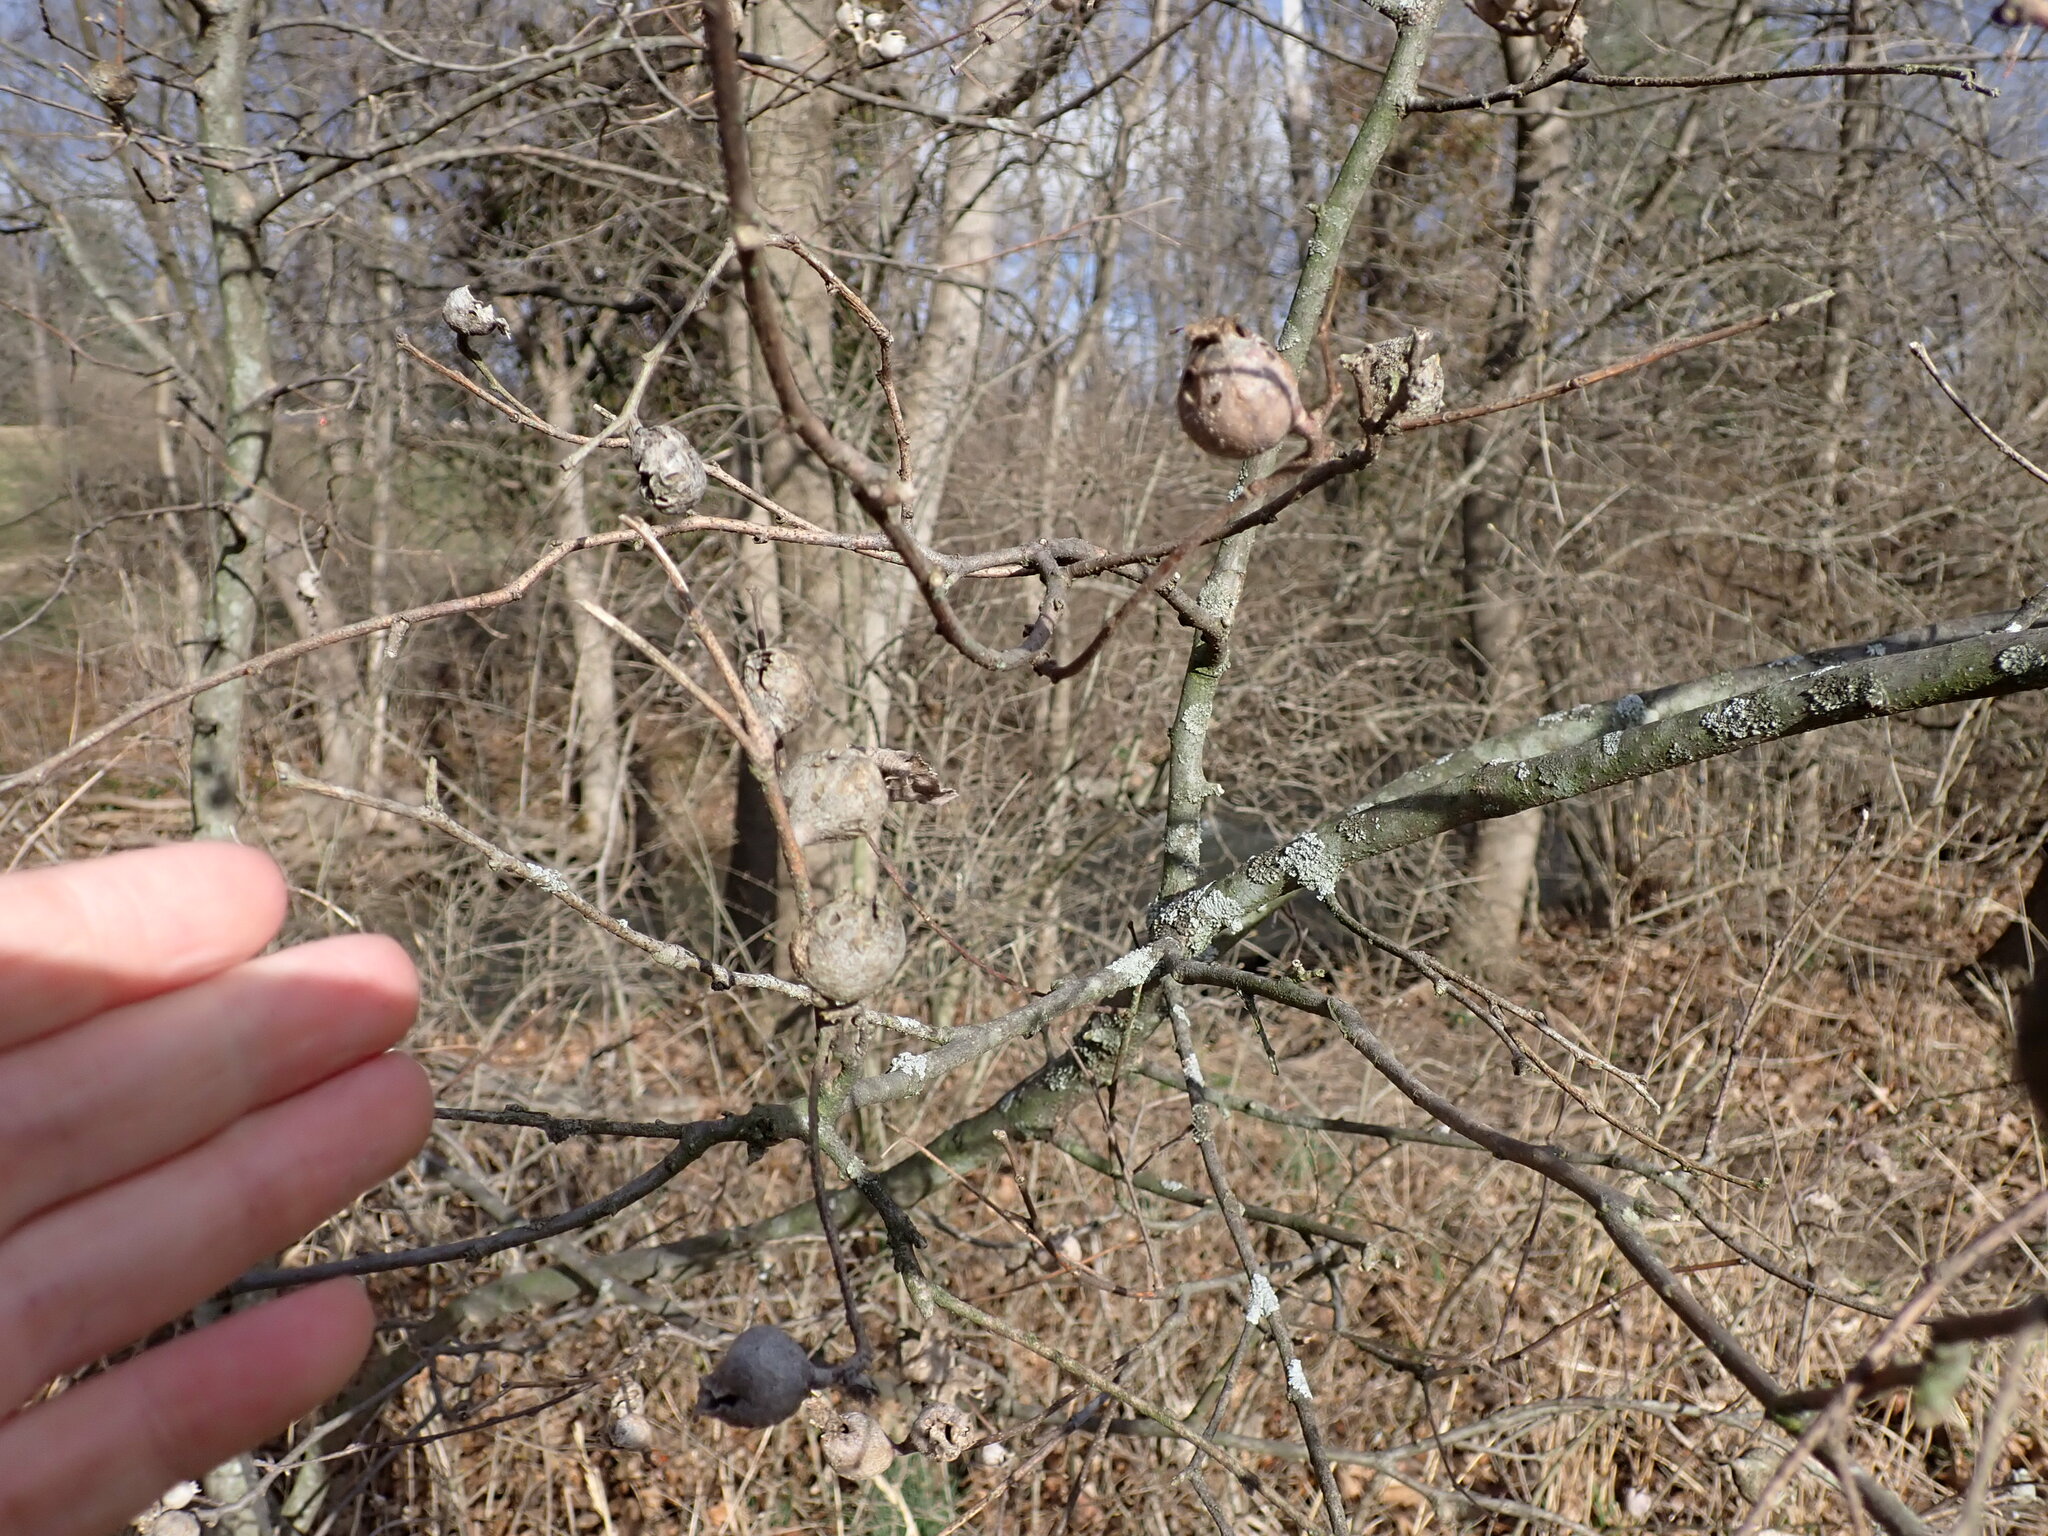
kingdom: Animalia
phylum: Arthropoda
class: Insecta
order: Hemiptera
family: Aphalaridae
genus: Pachypsylla
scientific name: Pachypsylla venusta
